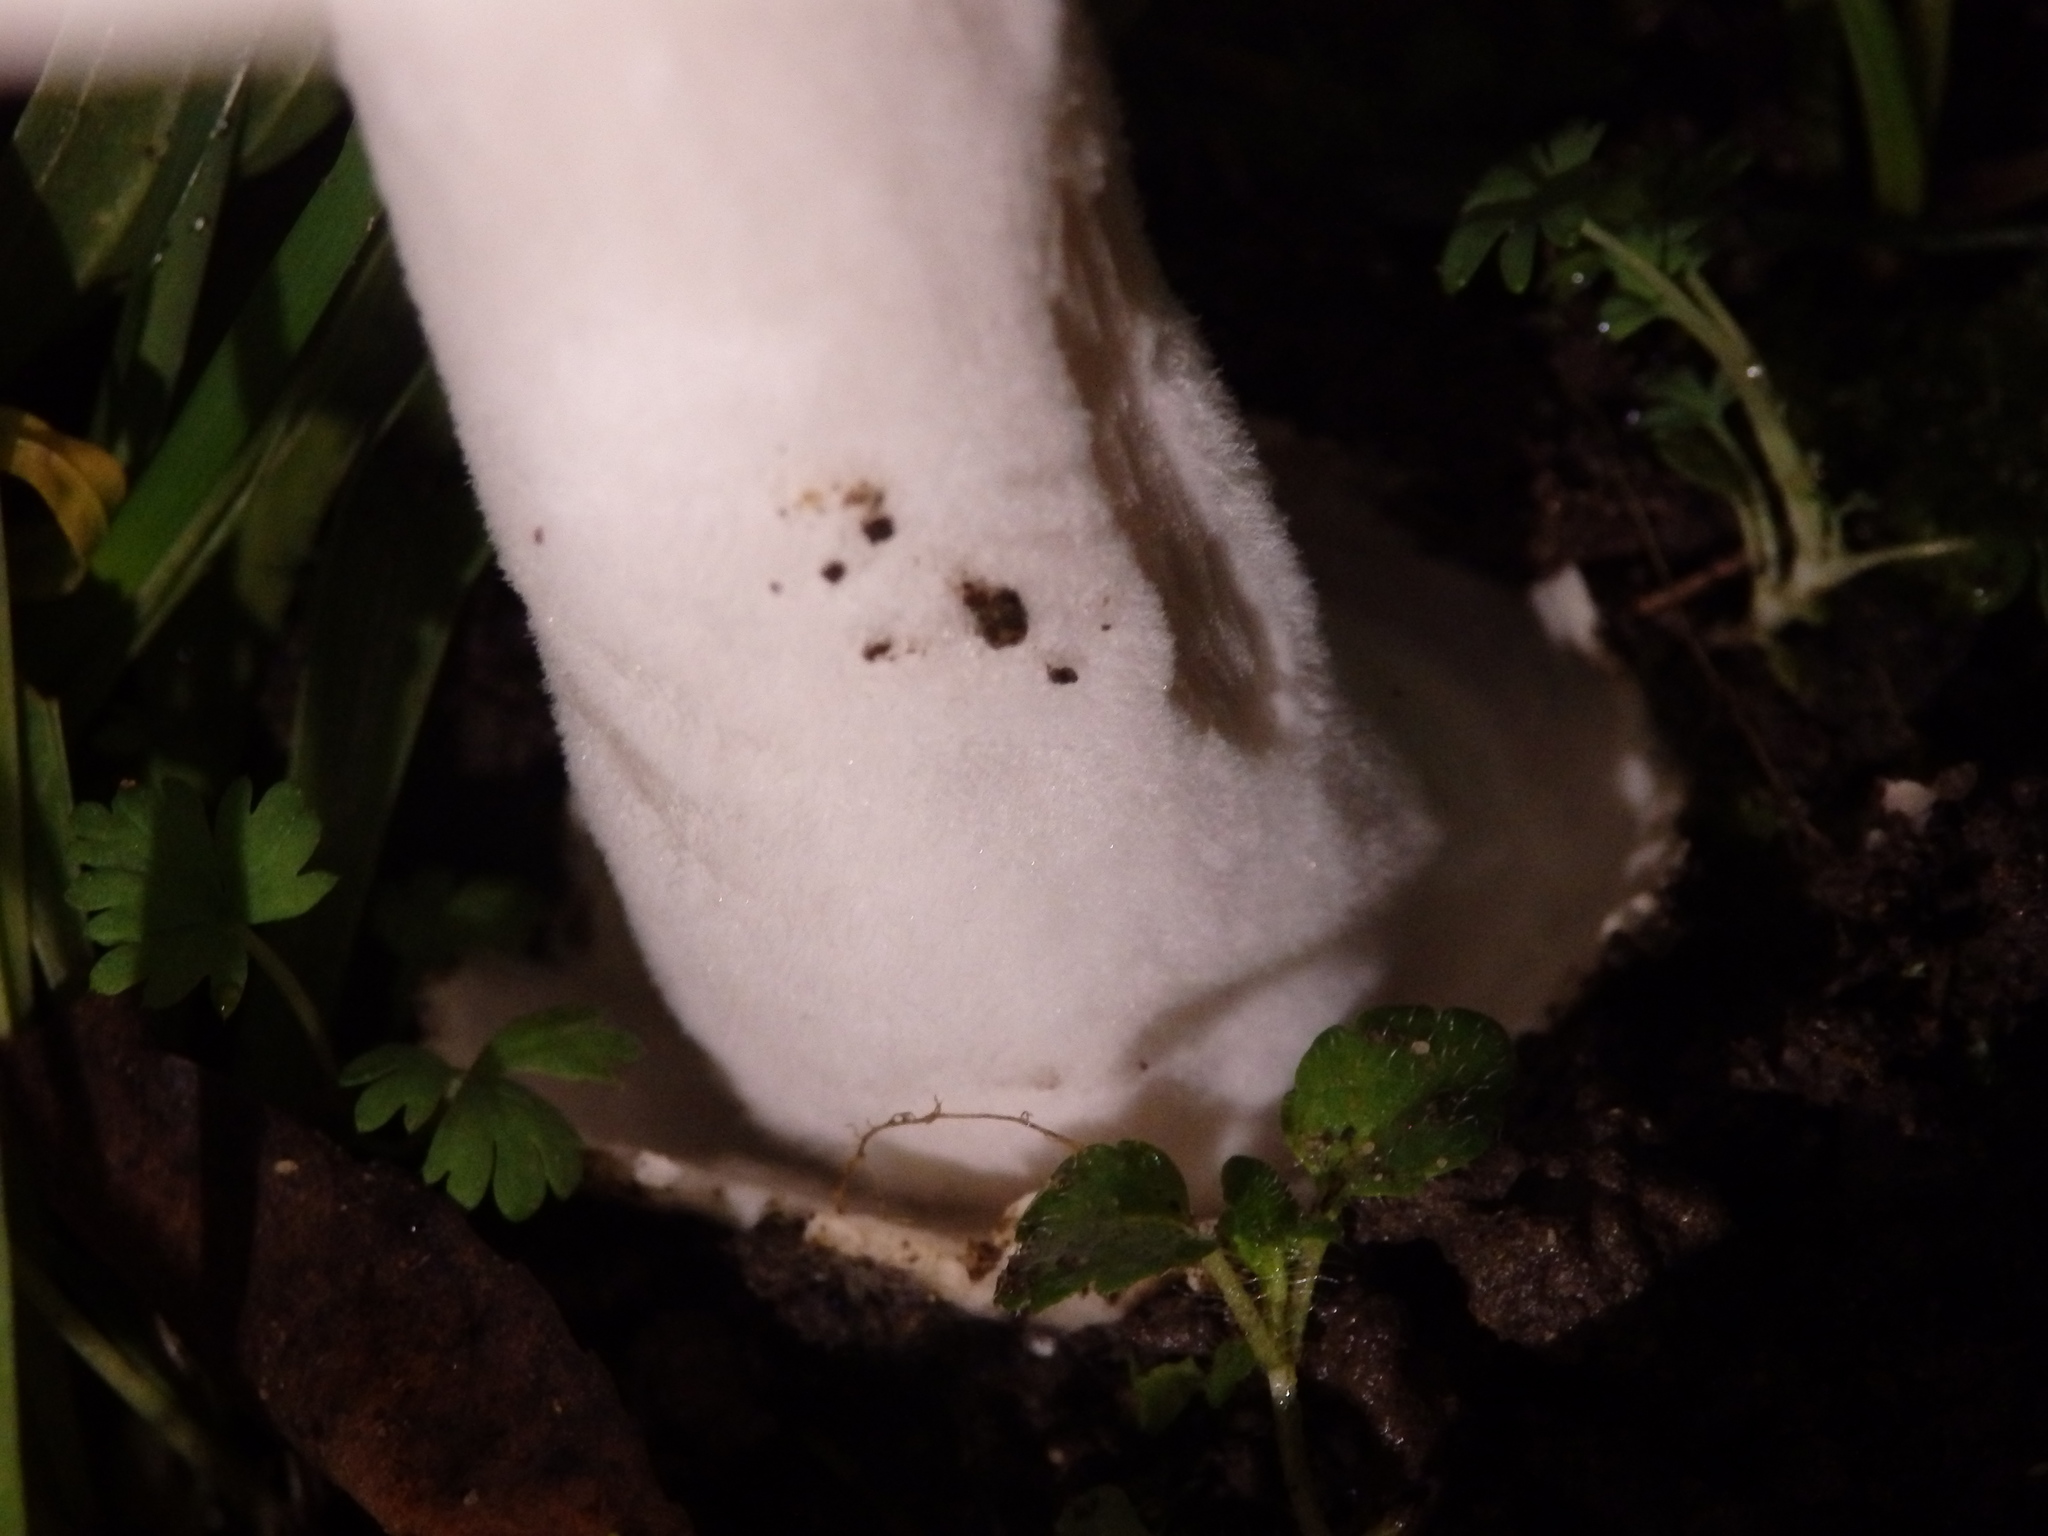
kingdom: Fungi
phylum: Basidiomycota
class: Agaricomycetes
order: Agaricales
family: Pluteaceae
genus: Volvopluteus
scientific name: Volvopluteus gloiocephalus
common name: Stubble rosegill
